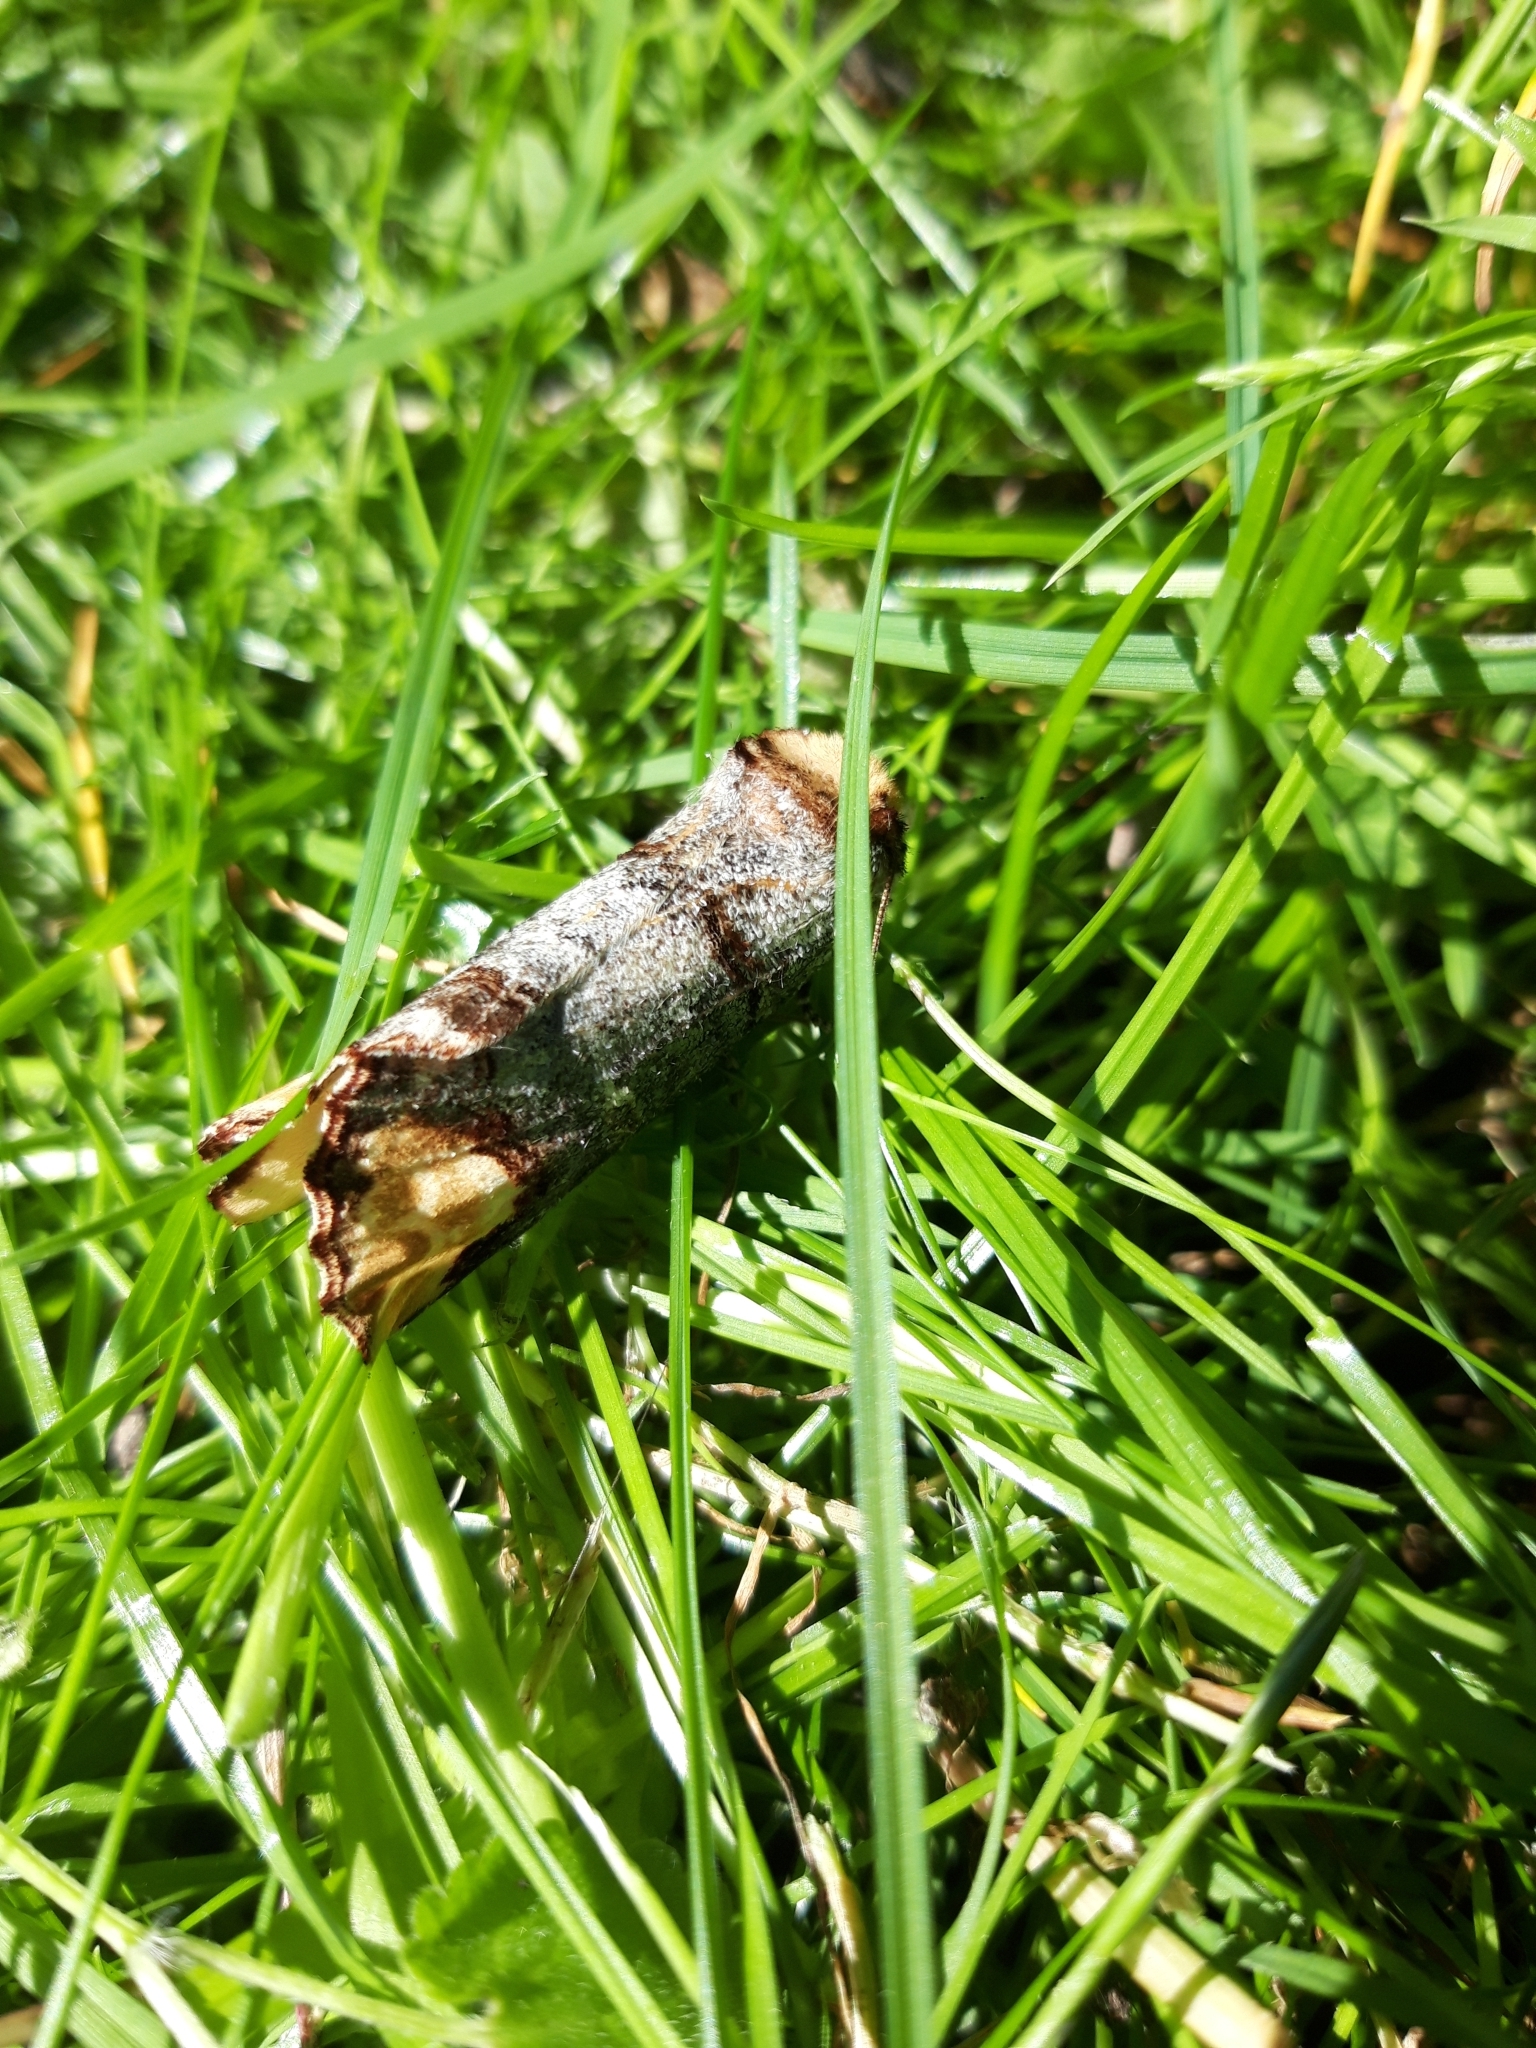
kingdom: Animalia
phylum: Arthropoda
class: Insecta
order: Lepidoptera
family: Notodontidae
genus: Phalera
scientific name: Phalera bucephala
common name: Buff-tip
